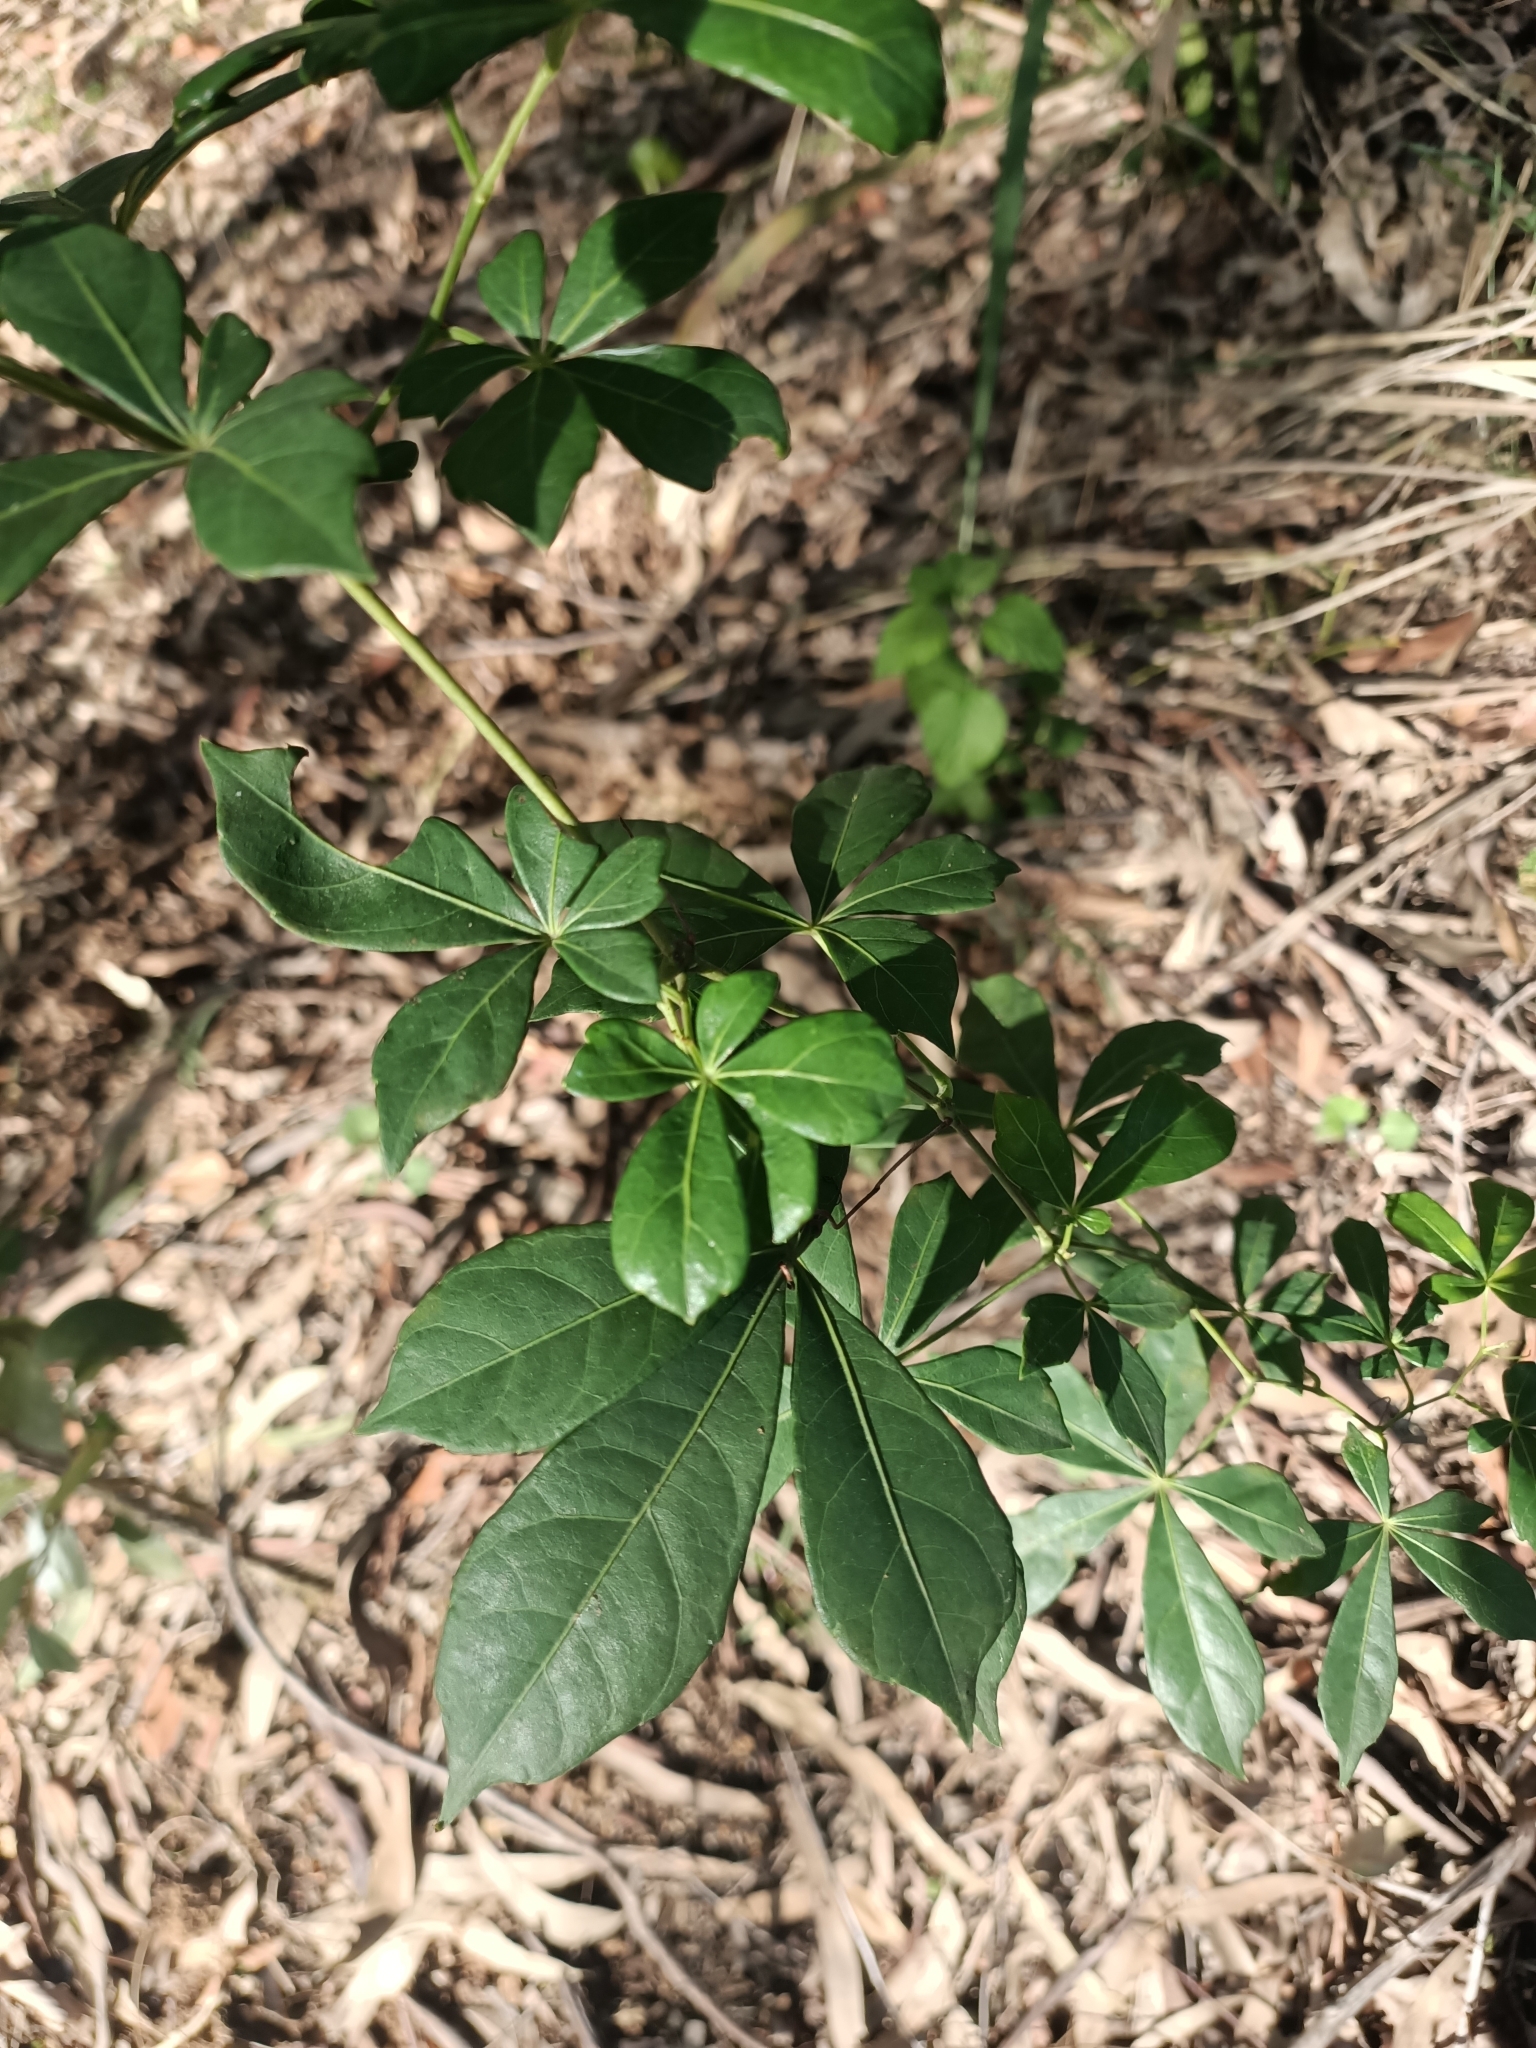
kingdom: Plantae
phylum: Tracheophyta
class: Magnoliopsida
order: Vitales
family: Vitaceae
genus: Clematicissus
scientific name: Clematicissus opaca
